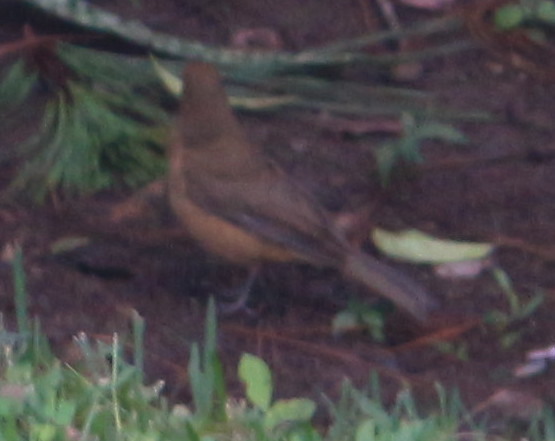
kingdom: Animalia
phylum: Chordata
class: Aves
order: Passeriformes
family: Turdidae
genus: Turdus
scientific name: Turdus grayi
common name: Clay-colored thrush
